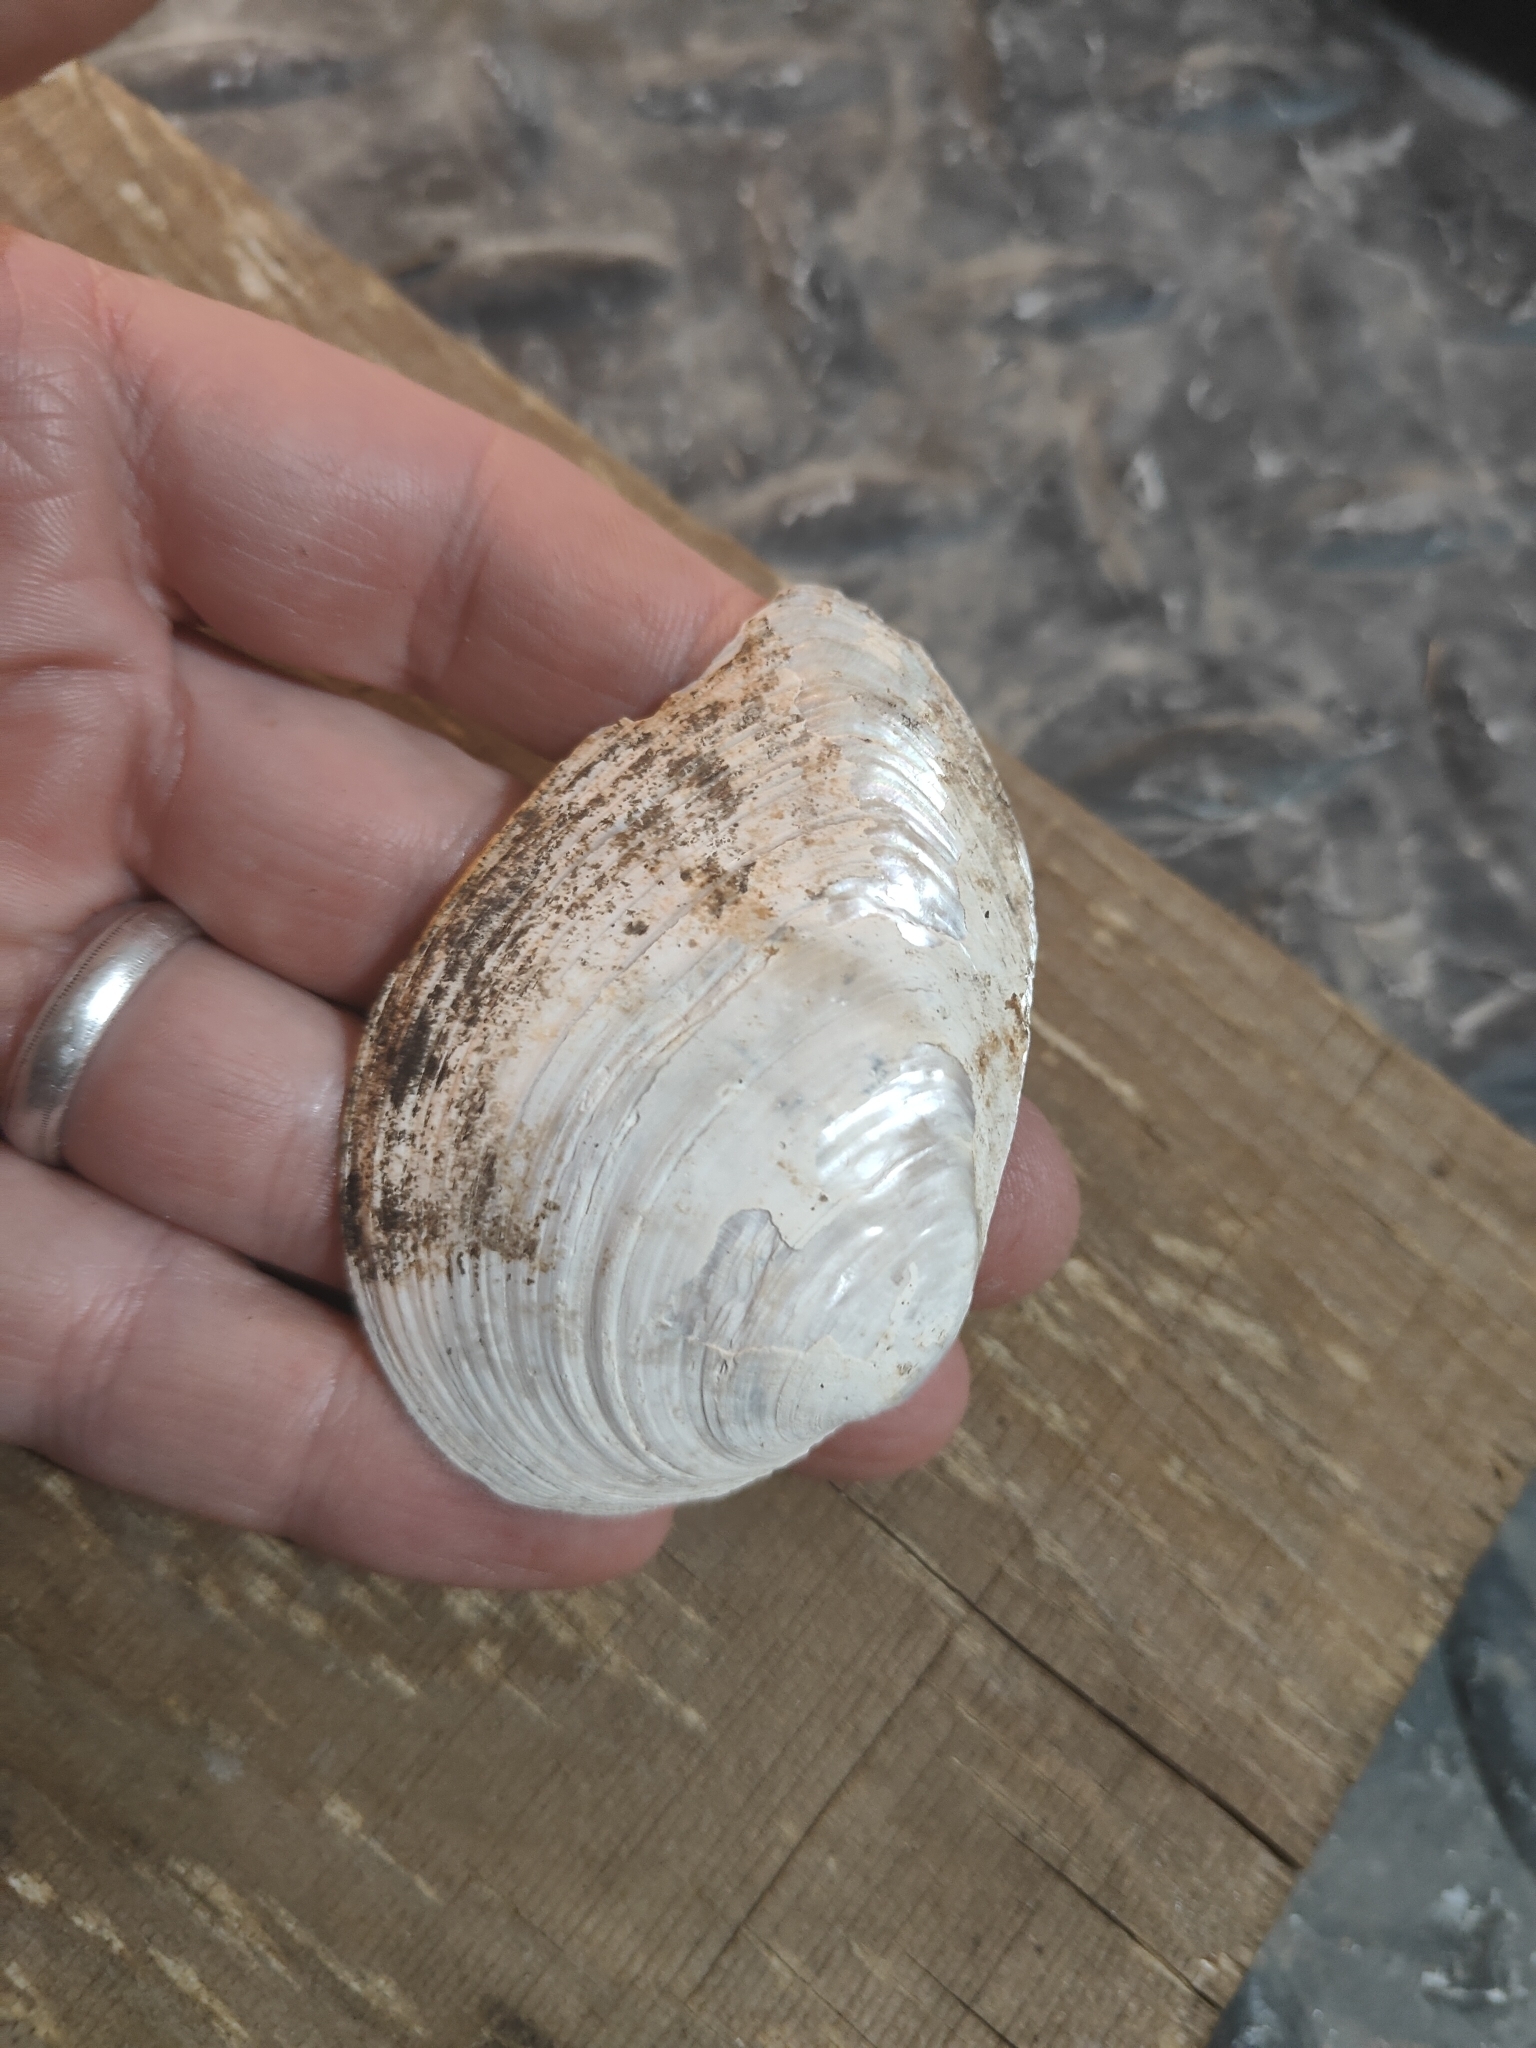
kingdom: Animalia
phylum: Mollusca
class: Bivalvia
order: Unionida
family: Unionidae
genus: Fusconaia
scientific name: Fusconaia flava
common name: Wabash pigtoe
